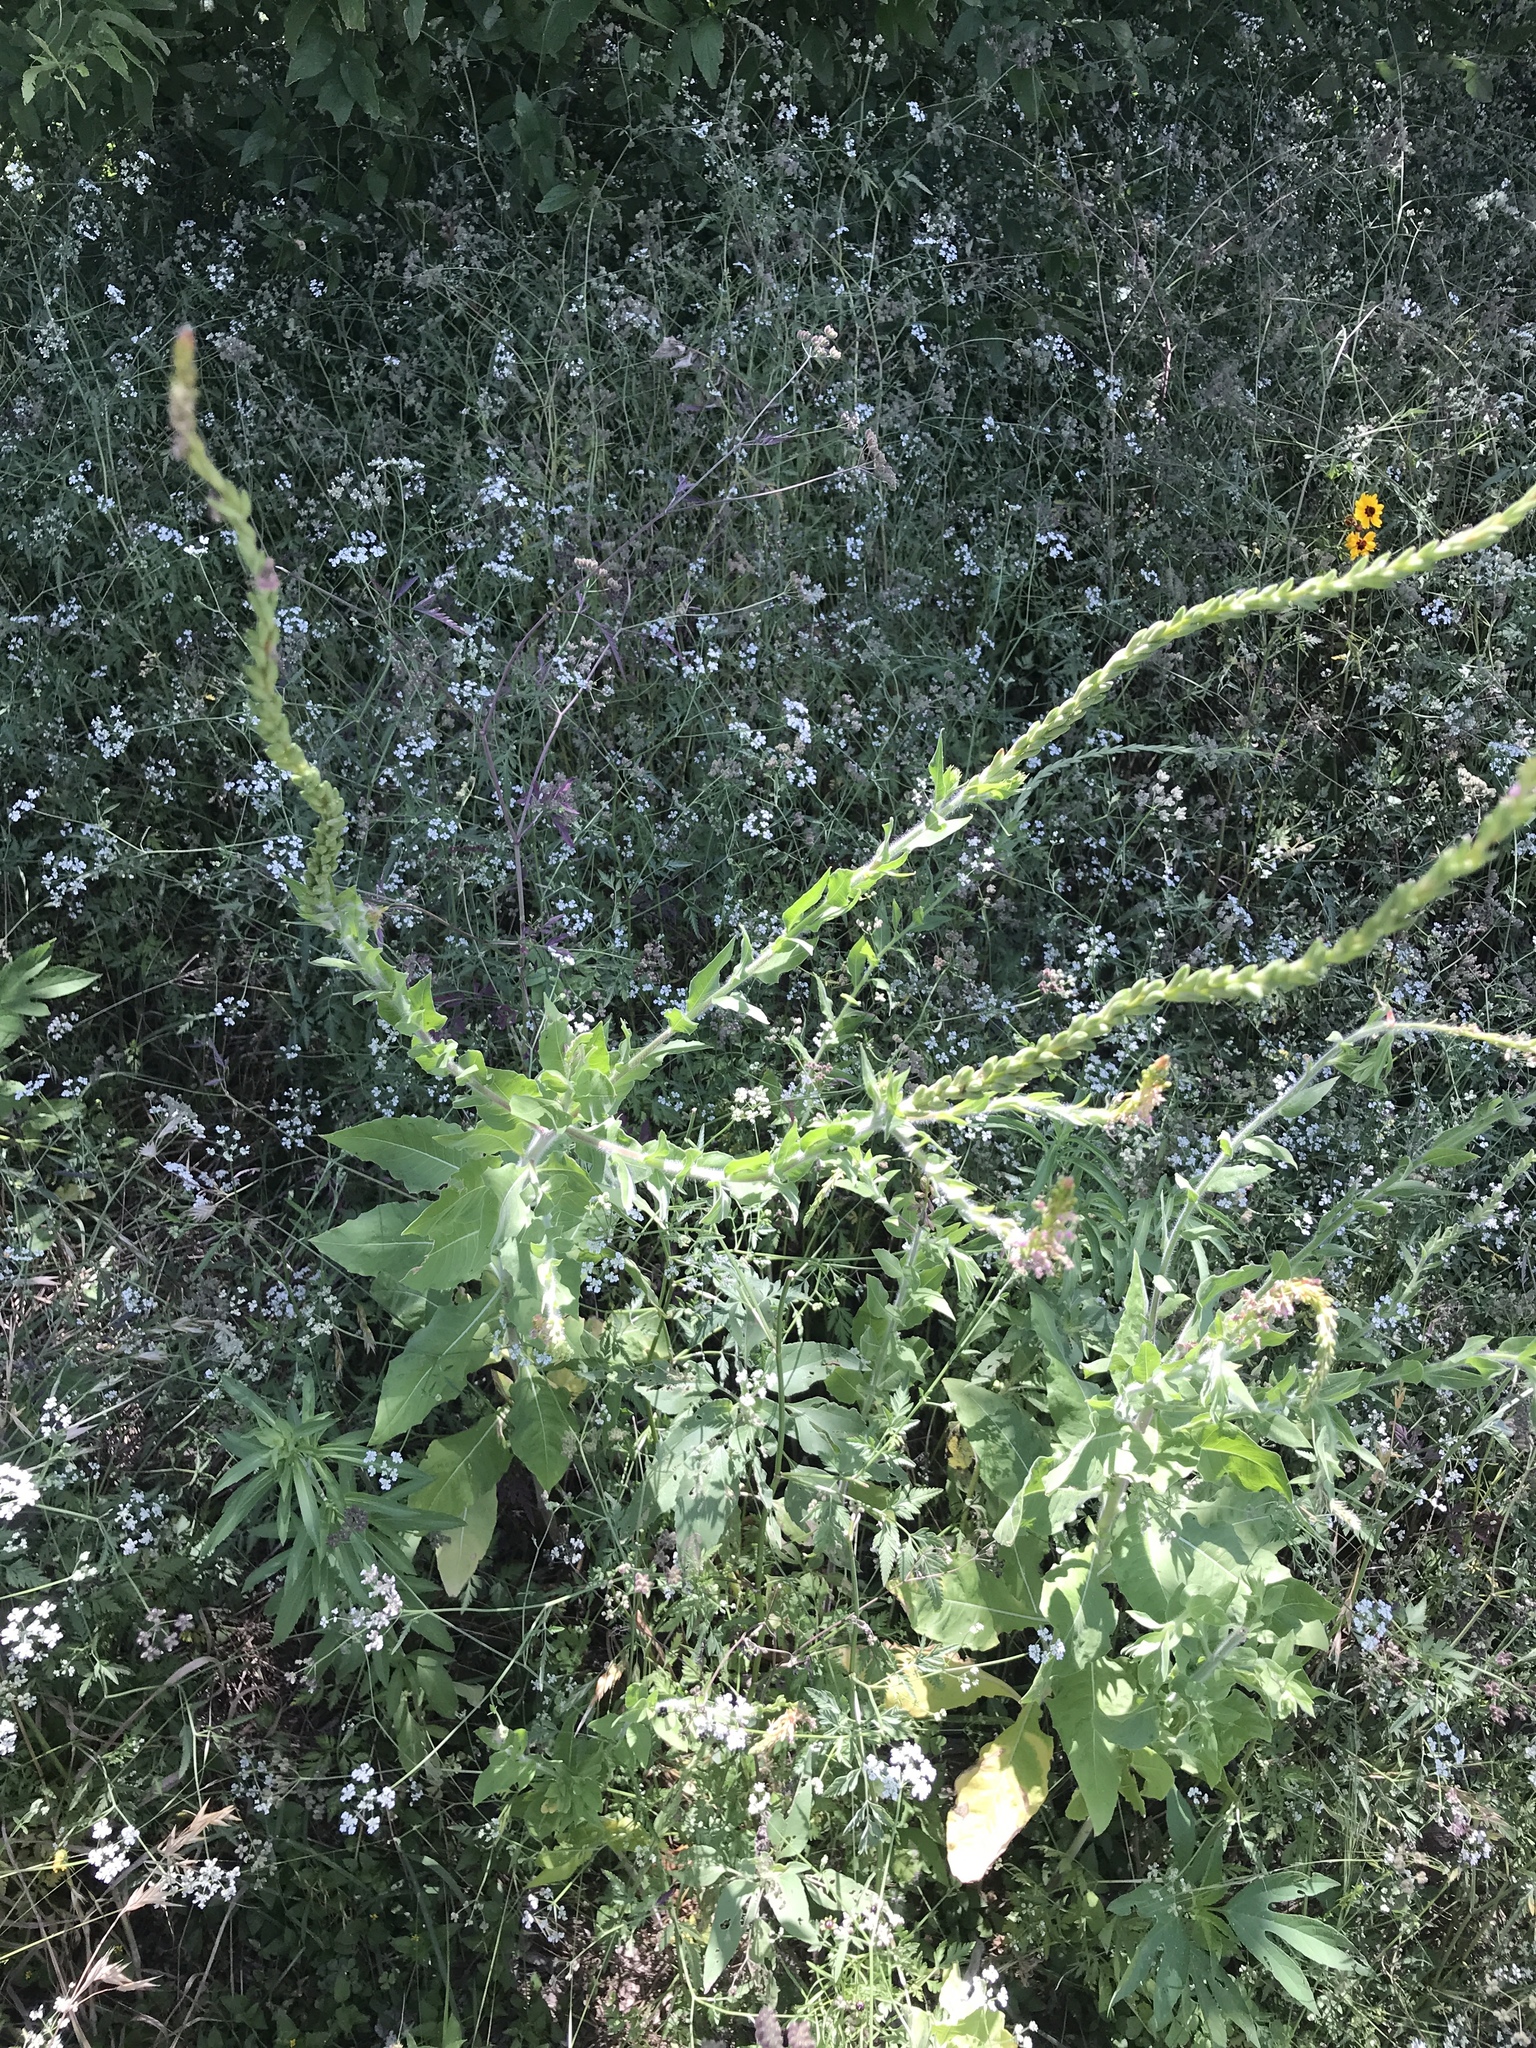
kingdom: Plantae
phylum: Tracheophyta
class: Magnoliopsida
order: Myrtales
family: Onagraceae
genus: Oenothera
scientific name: Oenothera curtiflora
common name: Velvetweed
